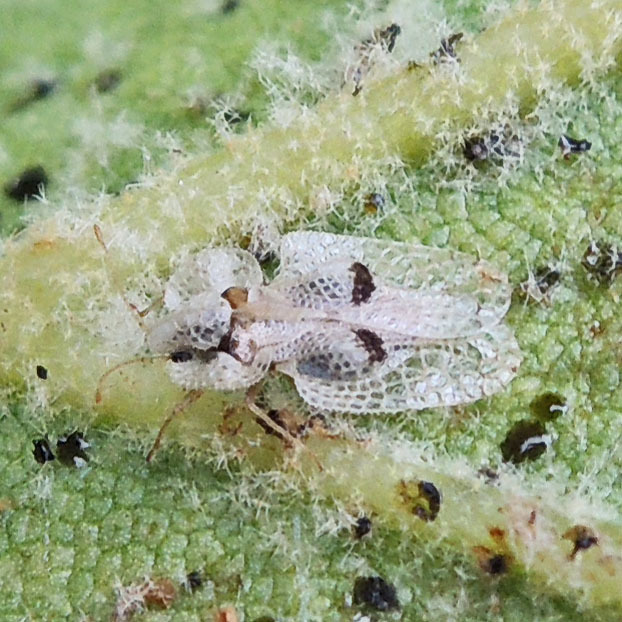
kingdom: Animalia
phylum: Arthropoda
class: Insecta
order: Hemiptera
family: Tingidae
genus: Corythucha
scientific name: Corythucha ciliata
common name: Sycamore lace bug
